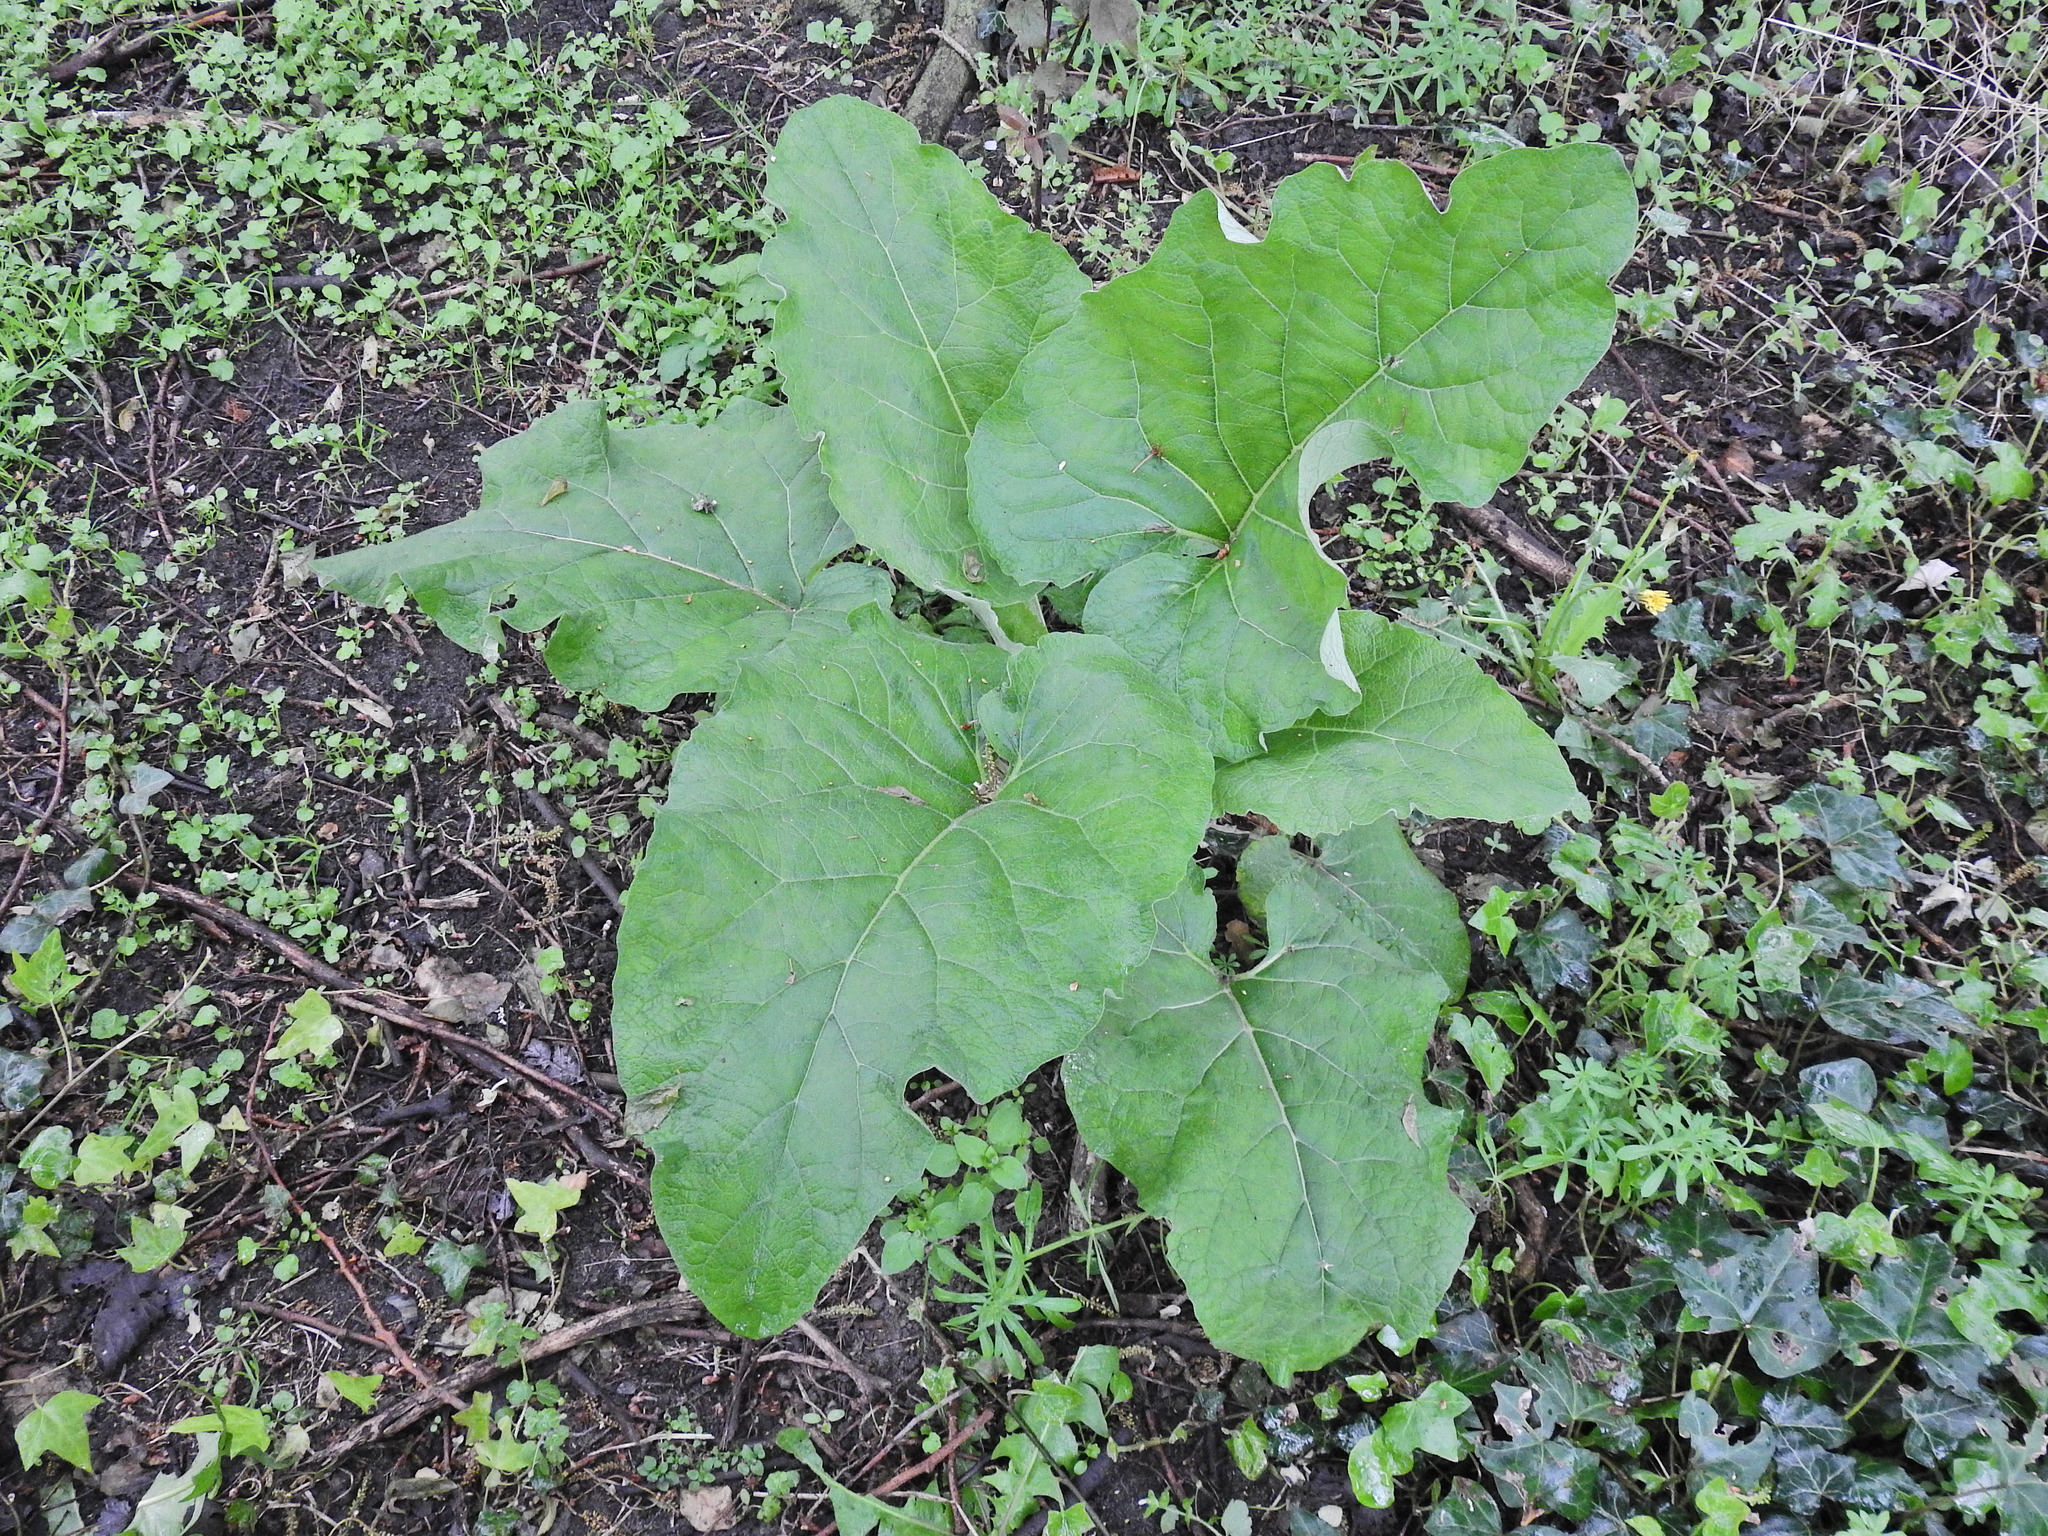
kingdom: Plantae
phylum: Tracheophyta
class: Magnoliopsida
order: Asterales
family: Asteraceae
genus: Arctium
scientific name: Arctium minus
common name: Lesser burdock
